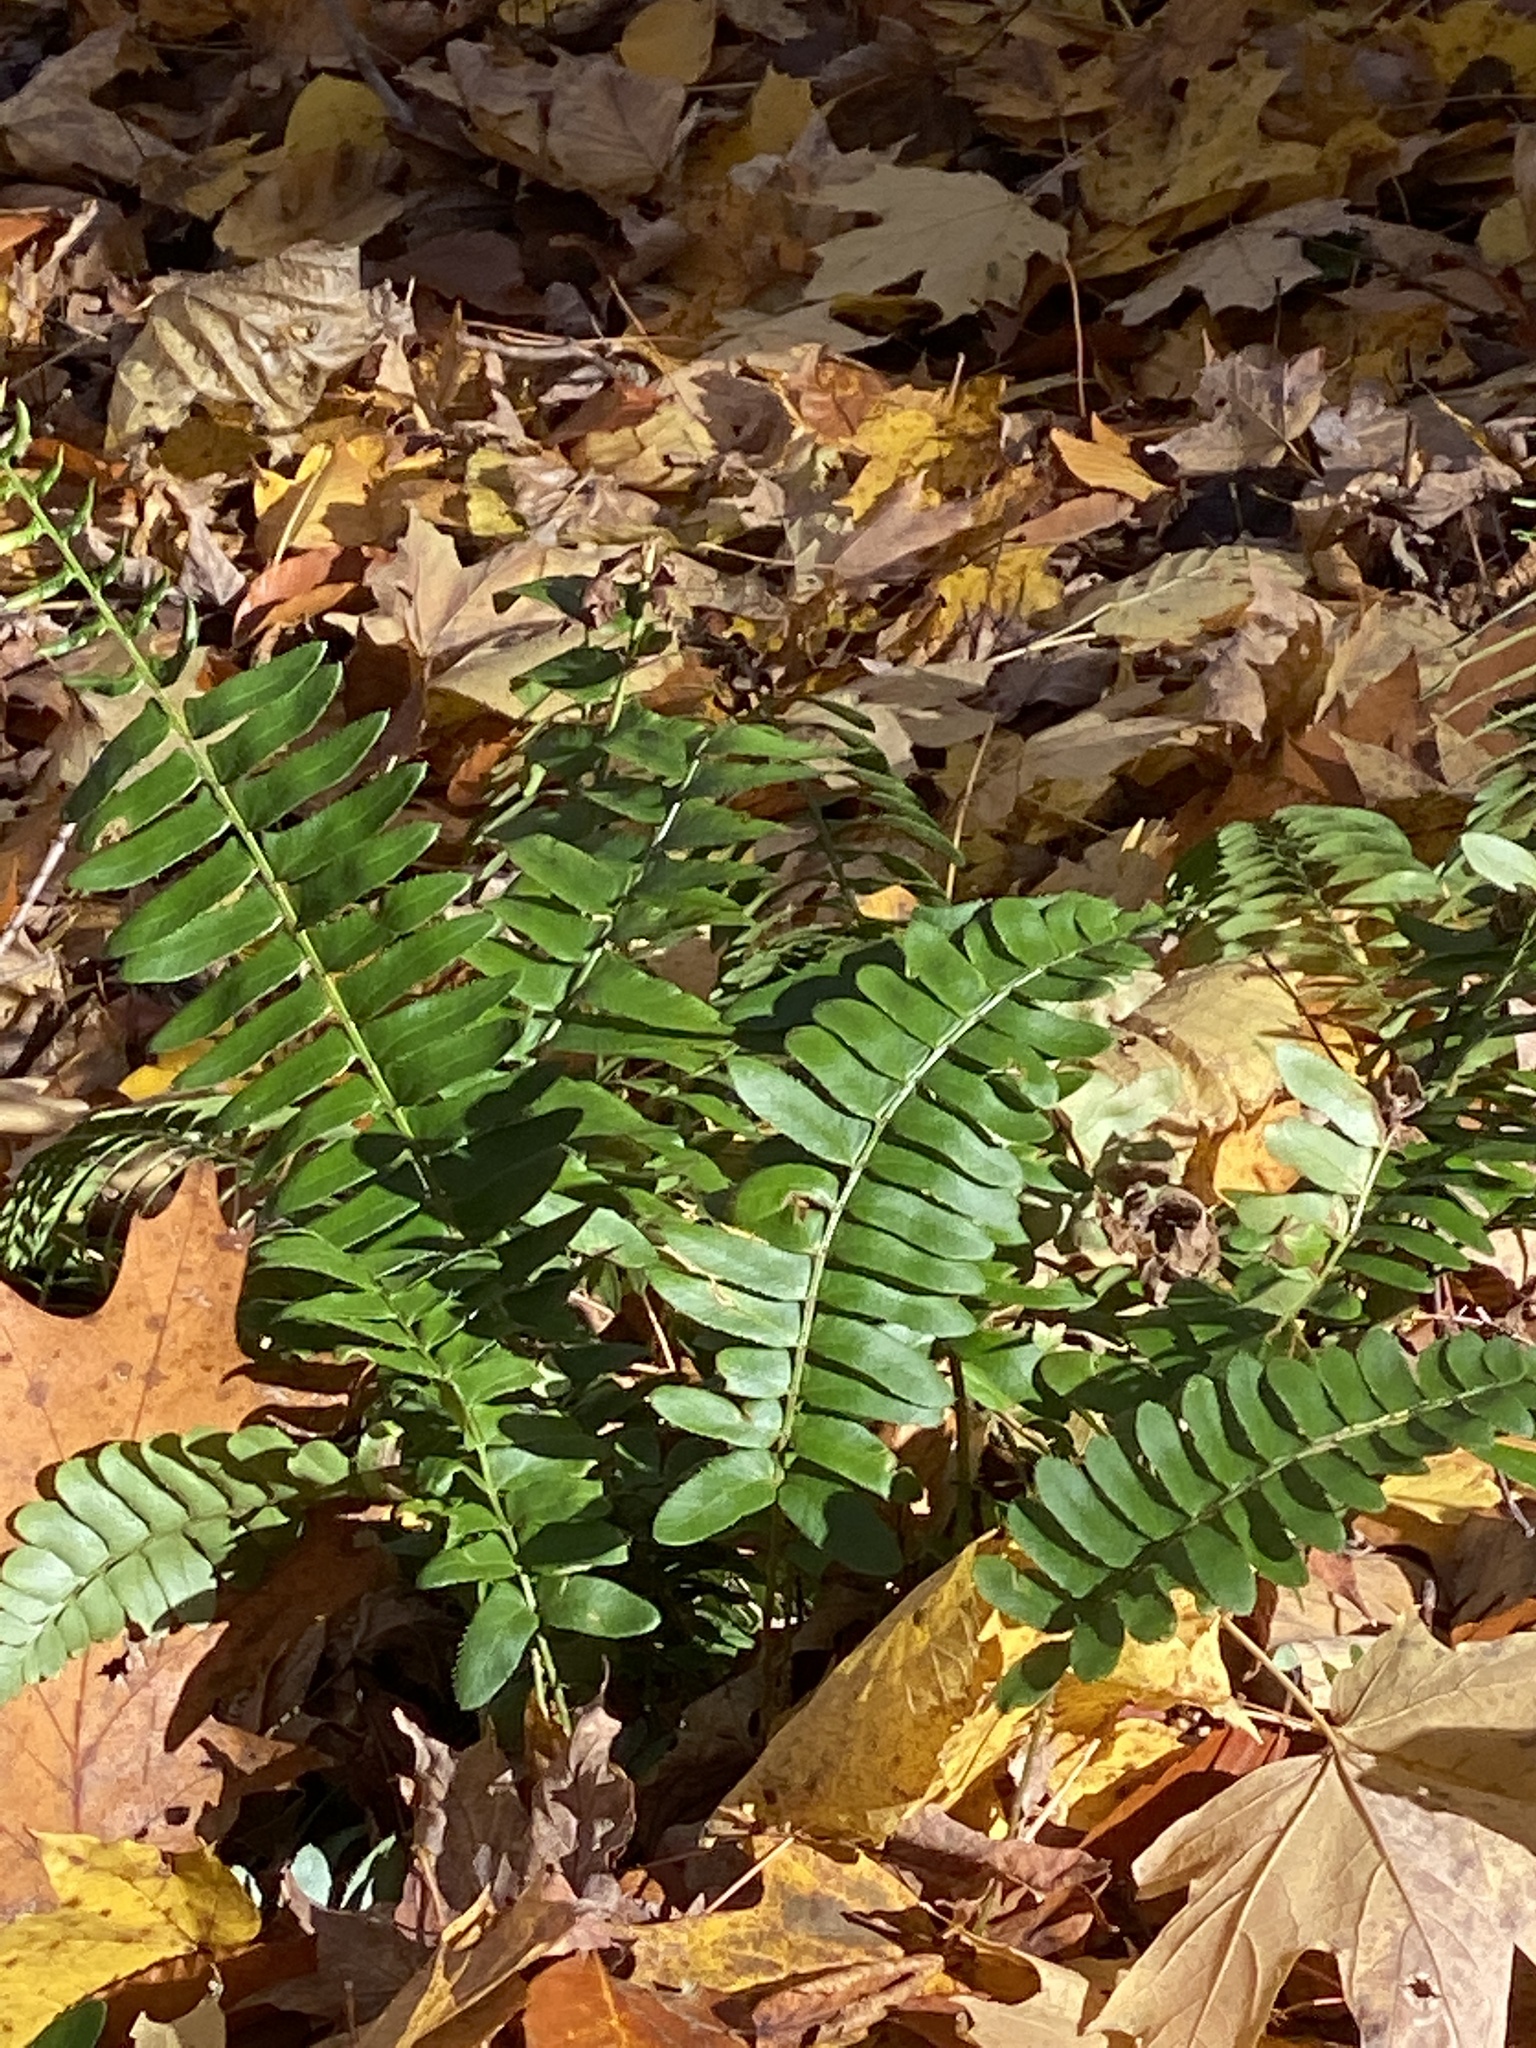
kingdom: Plantae
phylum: Tracheophyta
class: Polypodiopsida
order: Polypodiales
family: Dryopteridaceae
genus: Polystichum
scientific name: Polystichum acrostichoides
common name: Christmas fern
